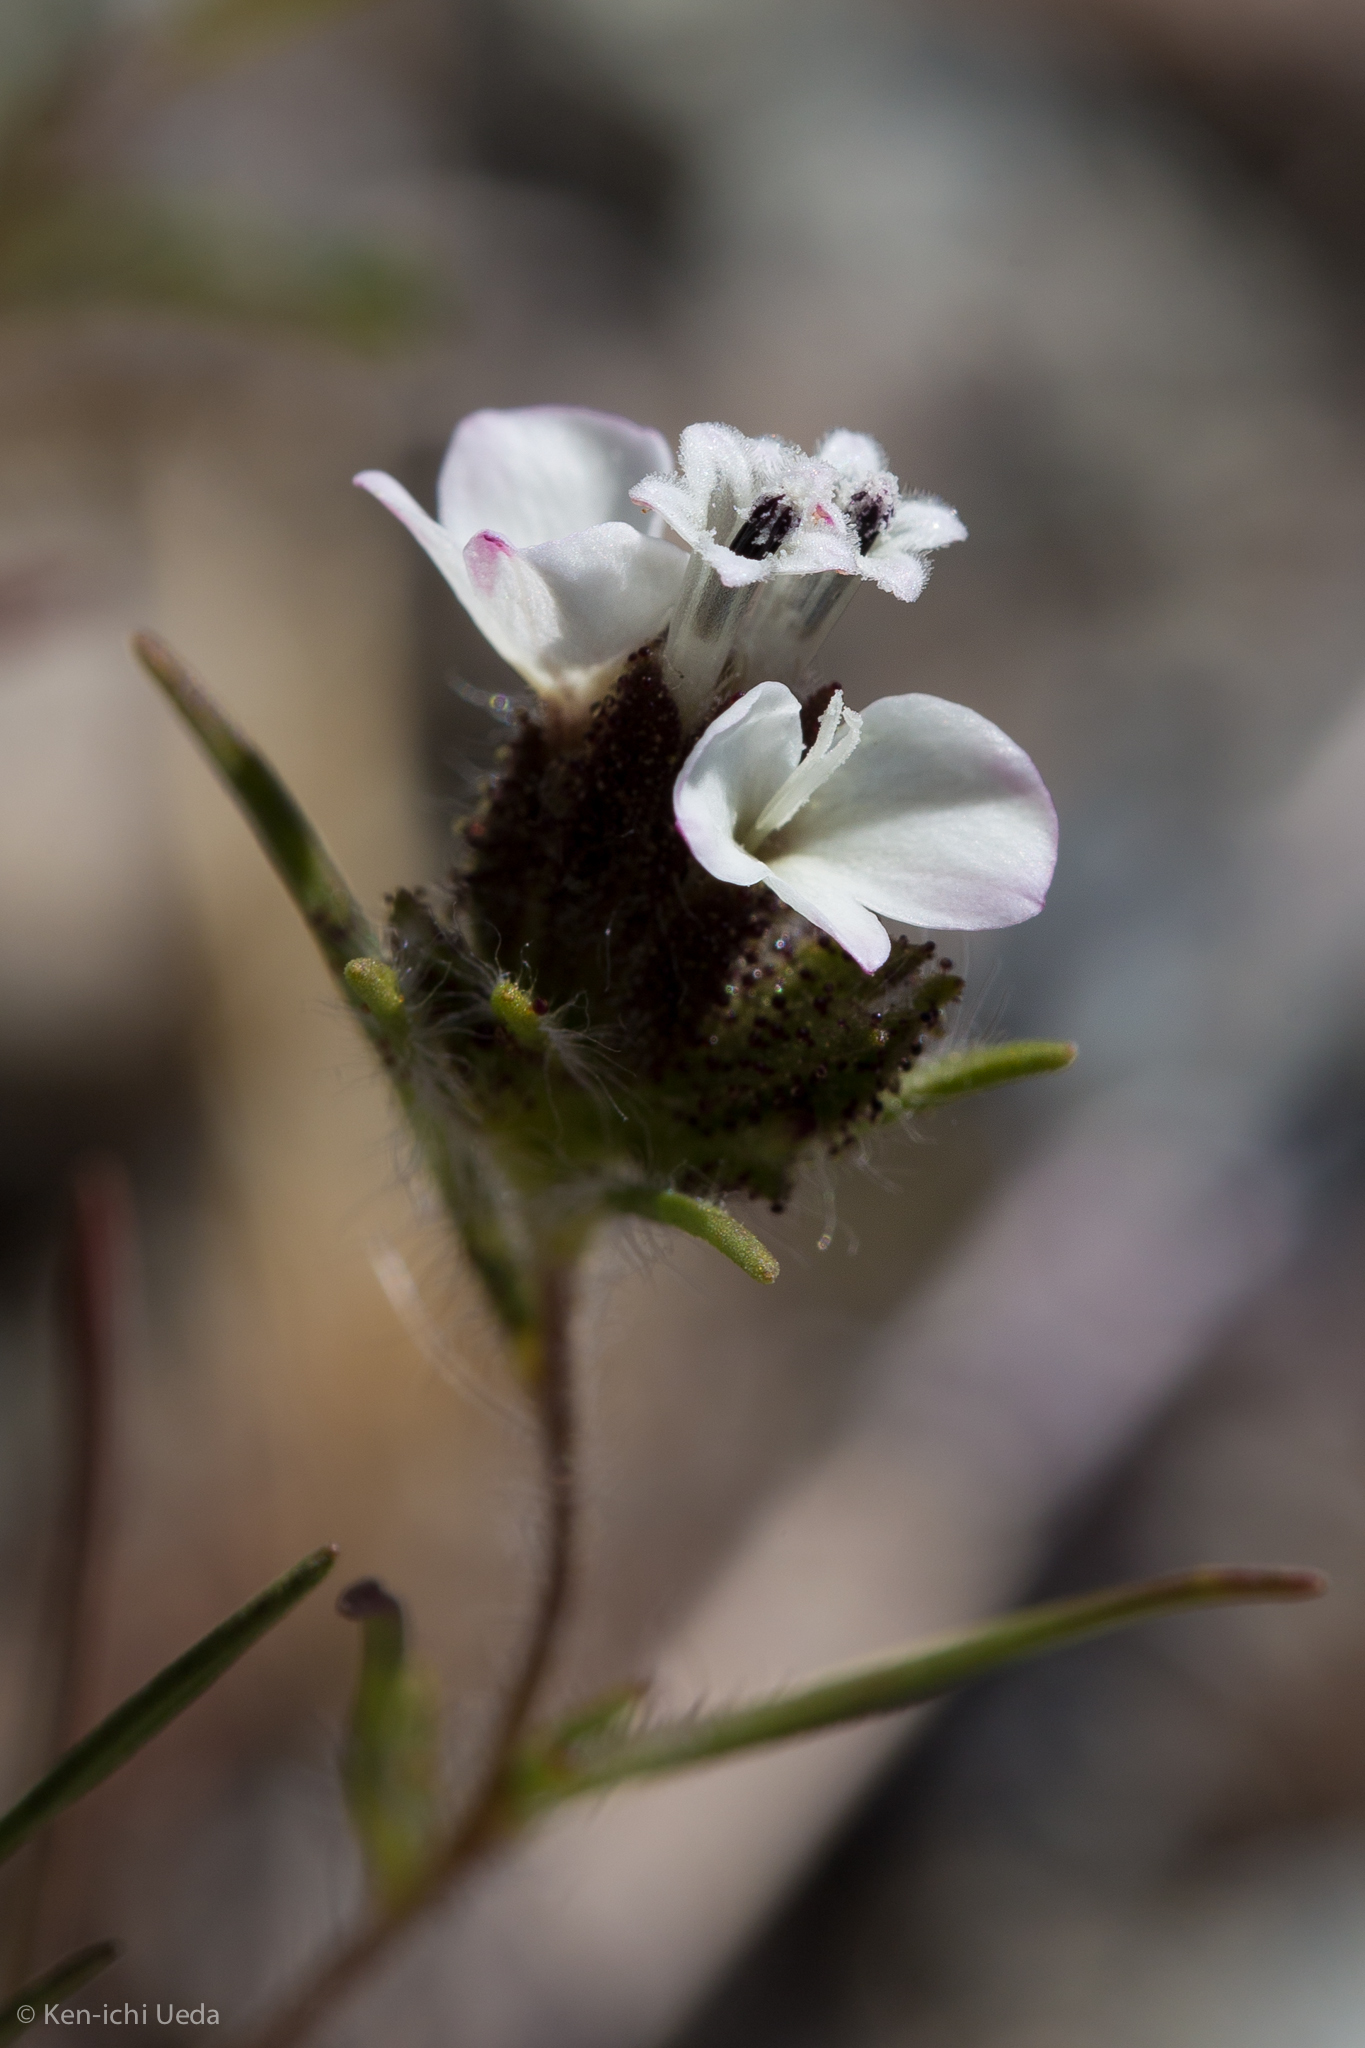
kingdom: Plantae
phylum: Tracheophyta
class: Magnoliopsida
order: Asterales
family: Asteraceae
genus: Calycadenia
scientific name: Calycadenia multiglandulosa
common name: Sticky calycadenia
